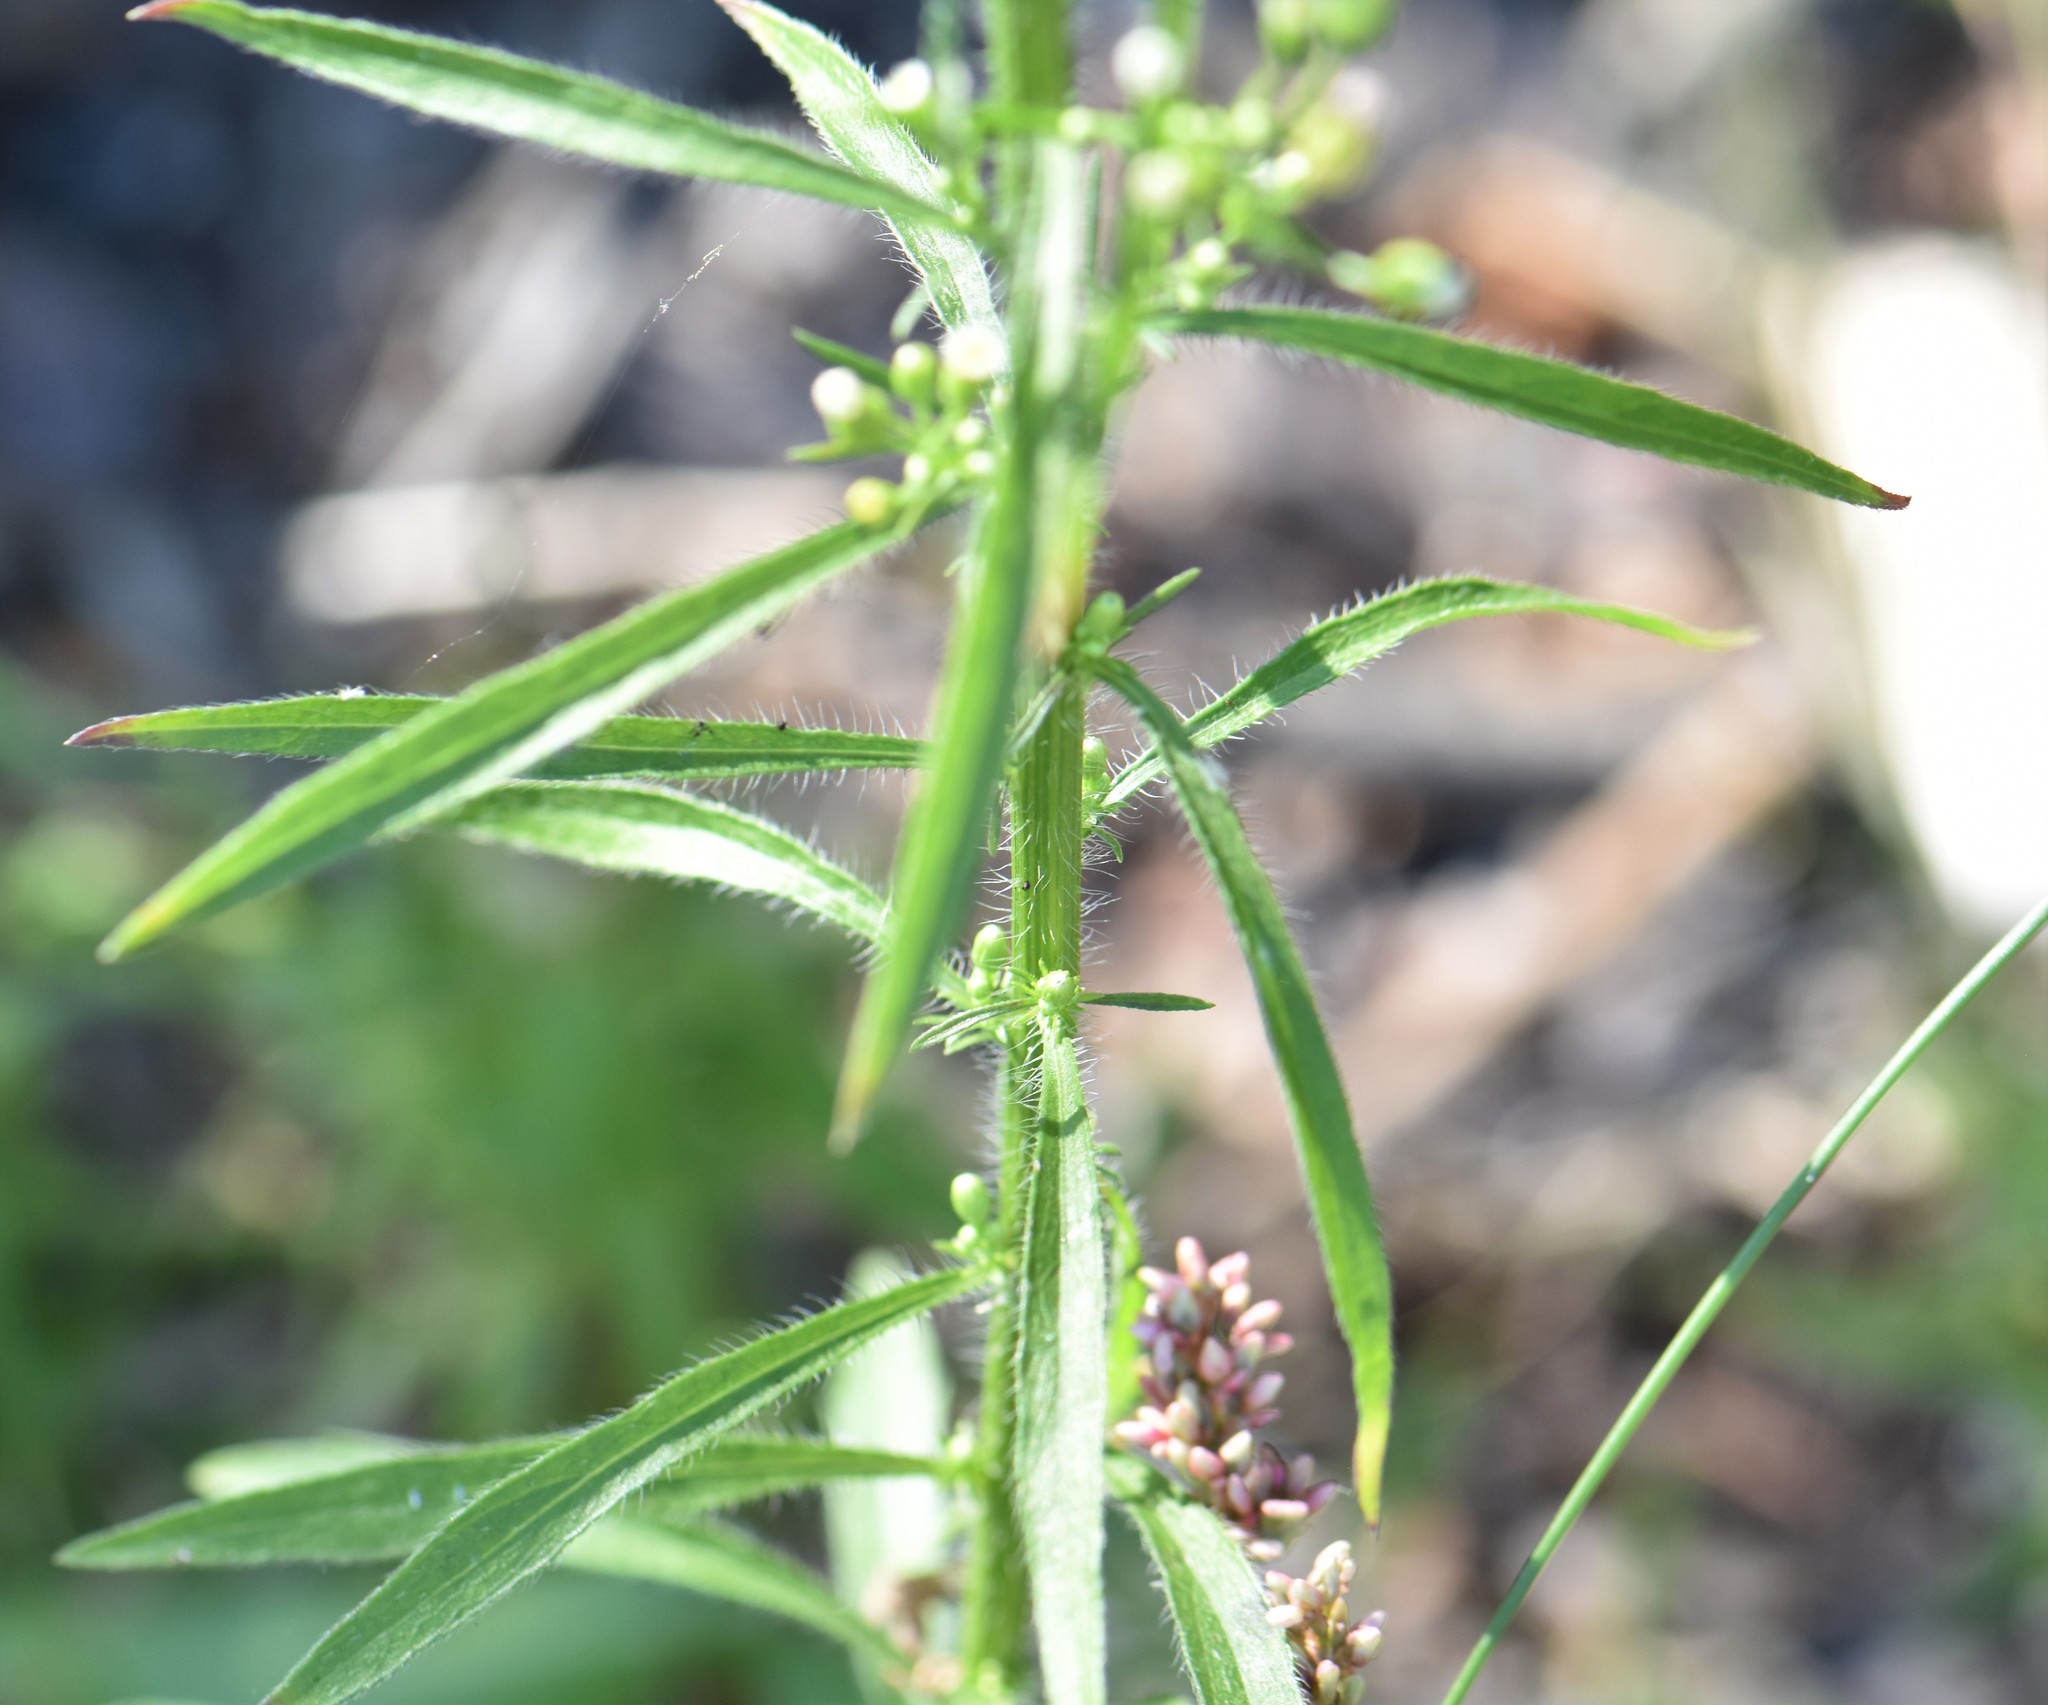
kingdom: Plantae
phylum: Tracheophyta
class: Magnoliopsida
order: Asterales
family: Asteraceae
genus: Erigeron
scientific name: Erigeron canadensis
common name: Canadian fleabane
